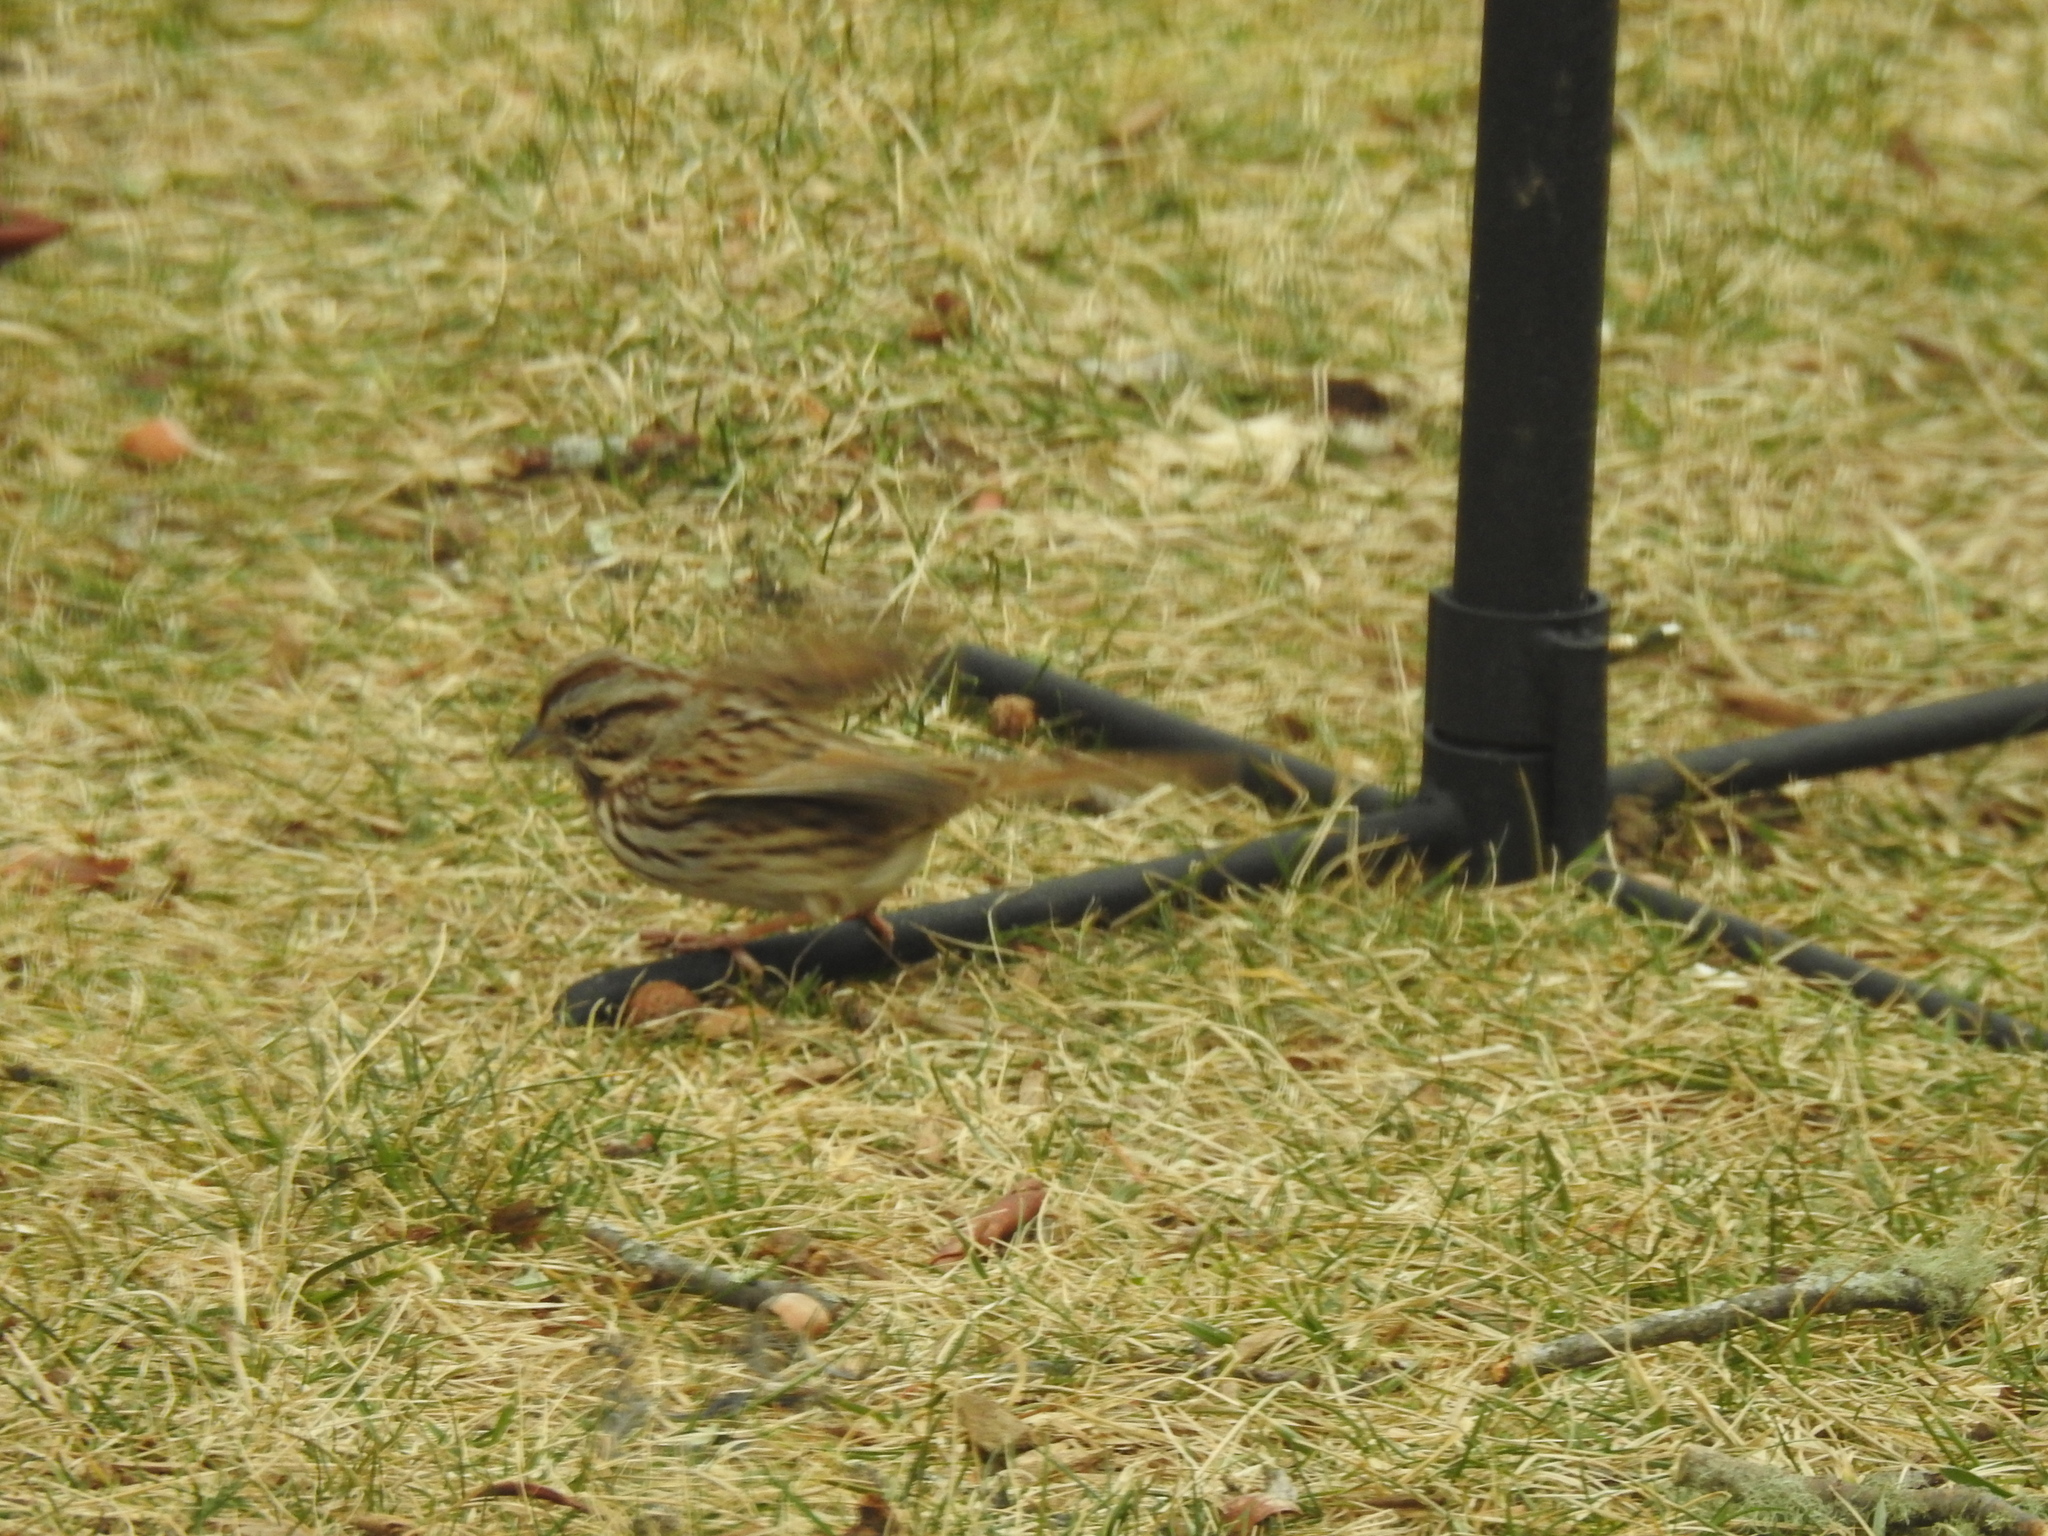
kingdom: Animalia
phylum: Chordata
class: Aves
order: Passeriformes
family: Passerellidae
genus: Melospiza
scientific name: Melospiza melodia
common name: Song sparrow
